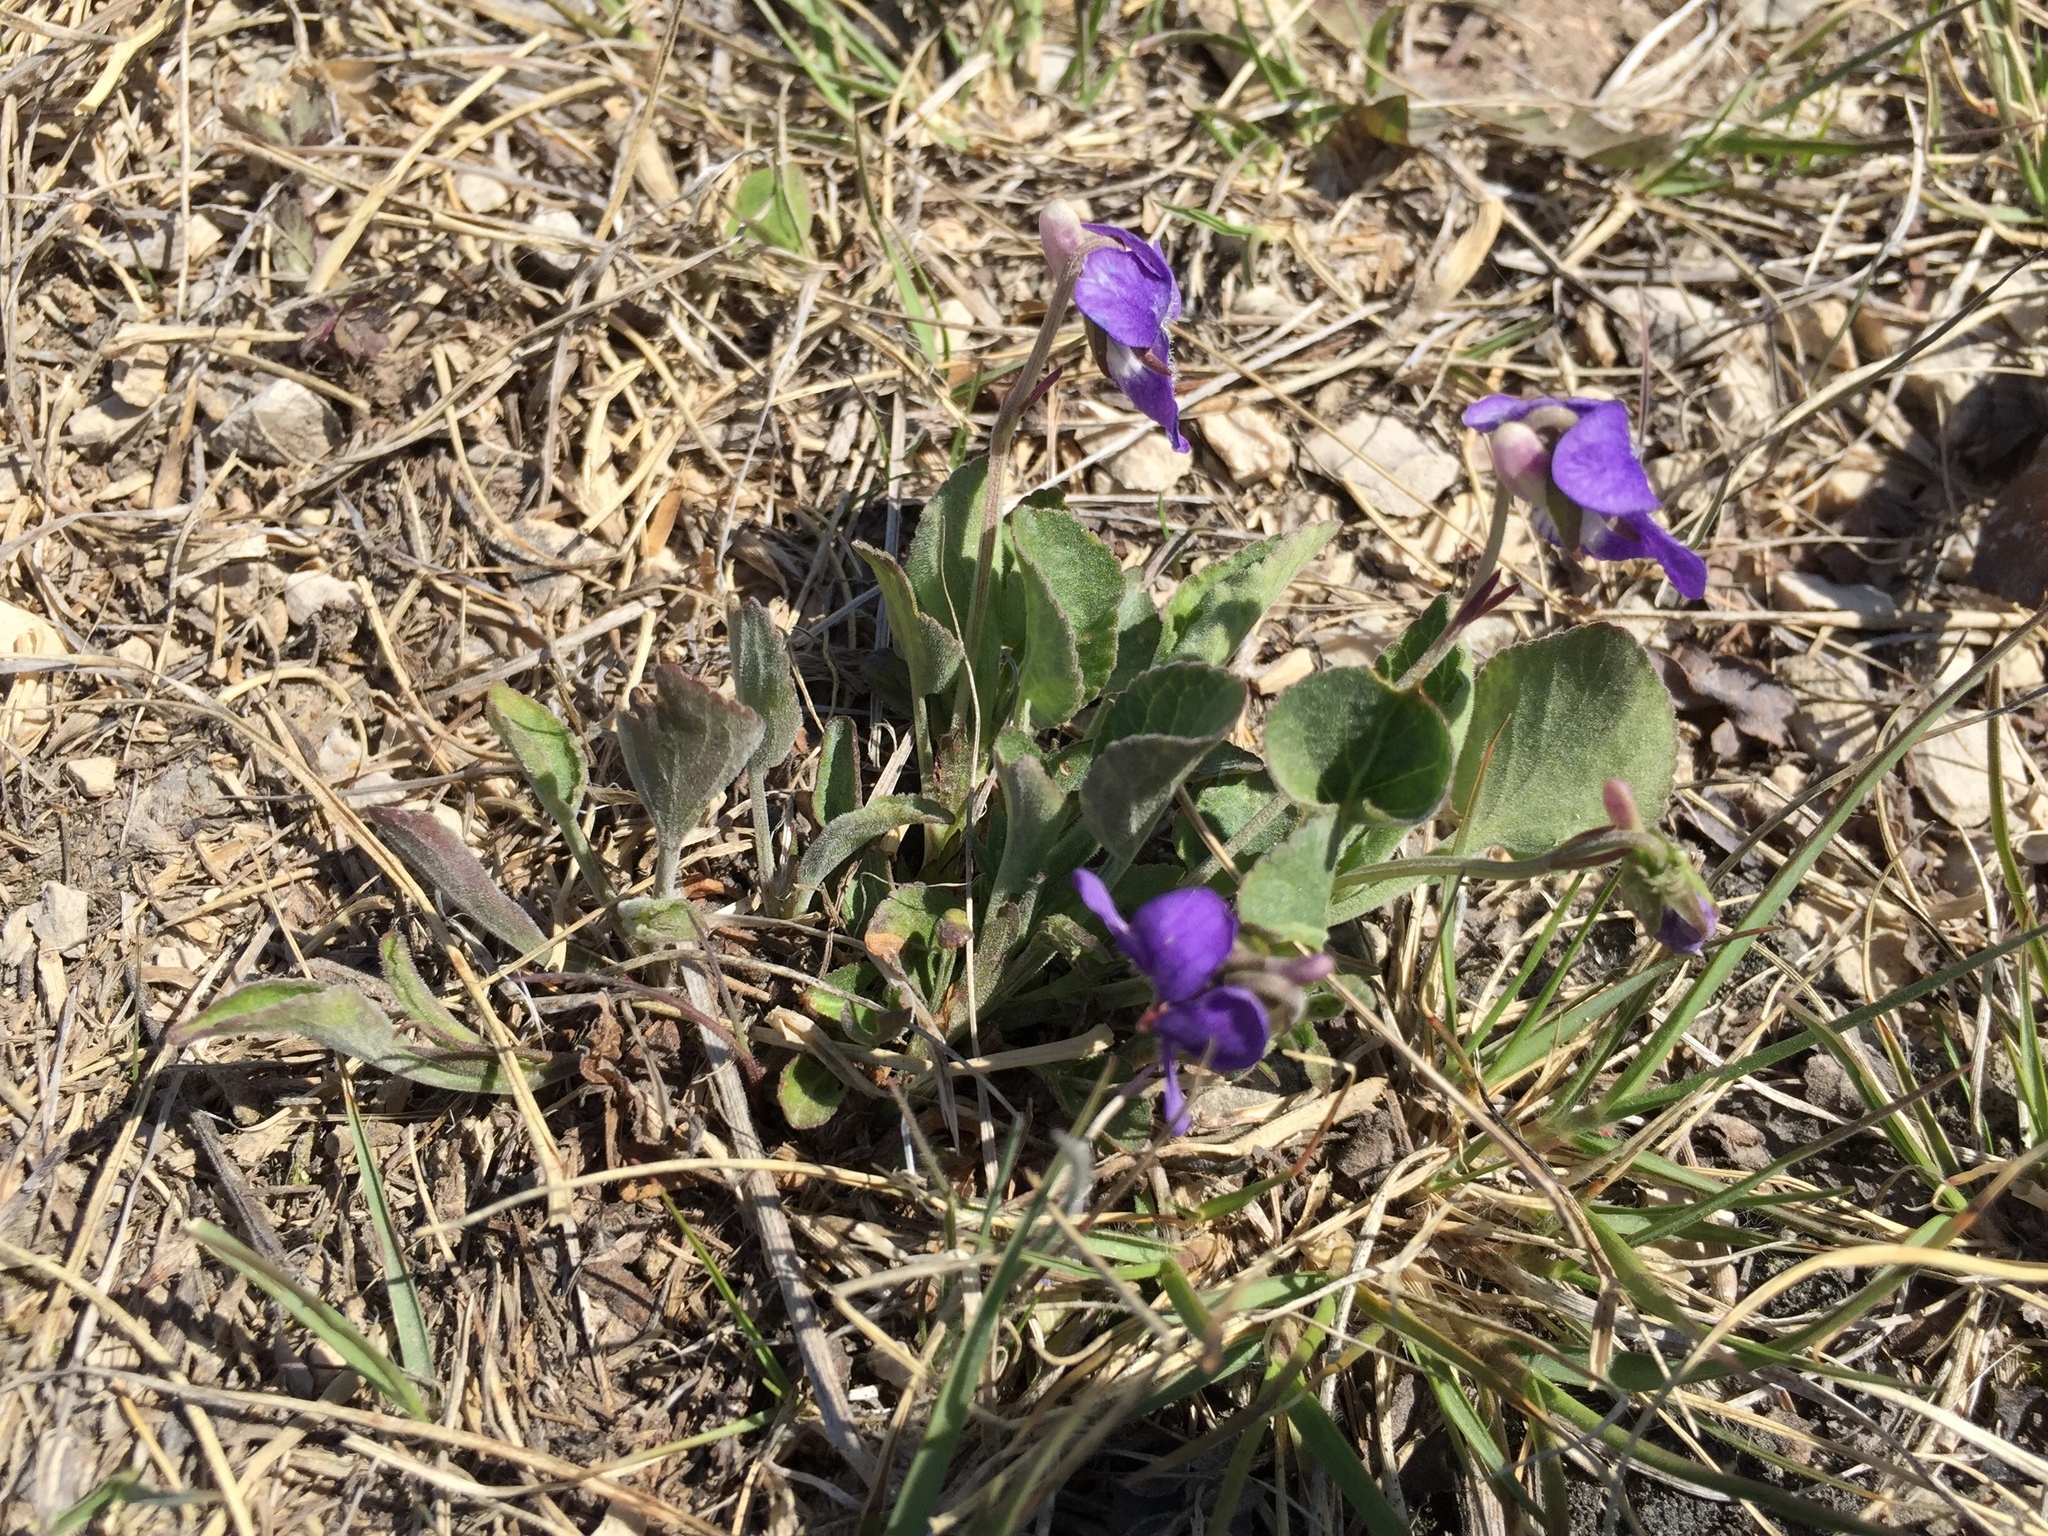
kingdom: Plantae
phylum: Tracheophyta
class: Magnoliopsida
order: Malpighiales
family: Violaceae
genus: Viola
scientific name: Viola adunca
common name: Sand violet
